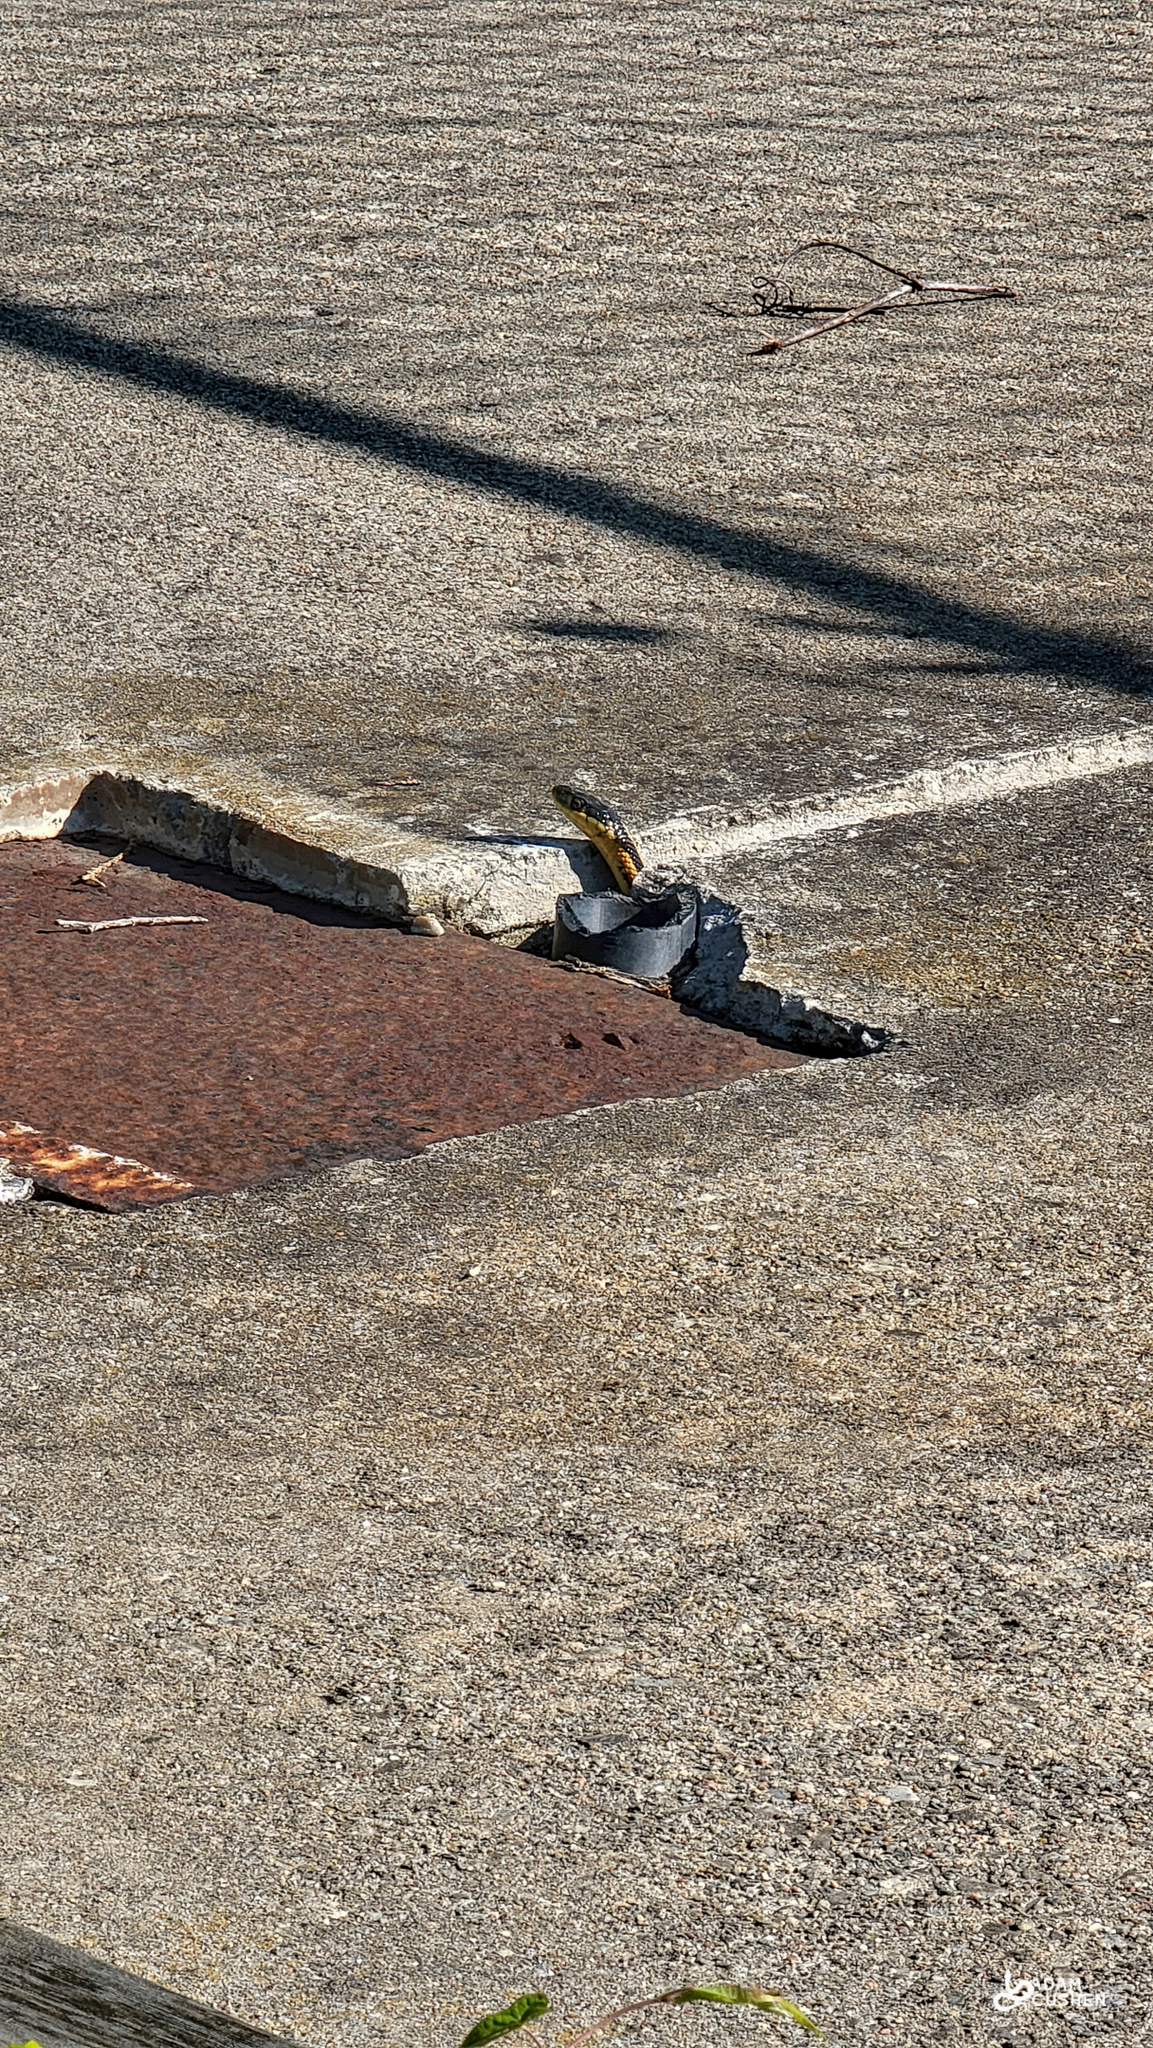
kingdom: Animalia
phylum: Chordata
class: Squamata
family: Colubridae
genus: Thamnophis
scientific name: Thamnophis sirtalis
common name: Common garter snake
